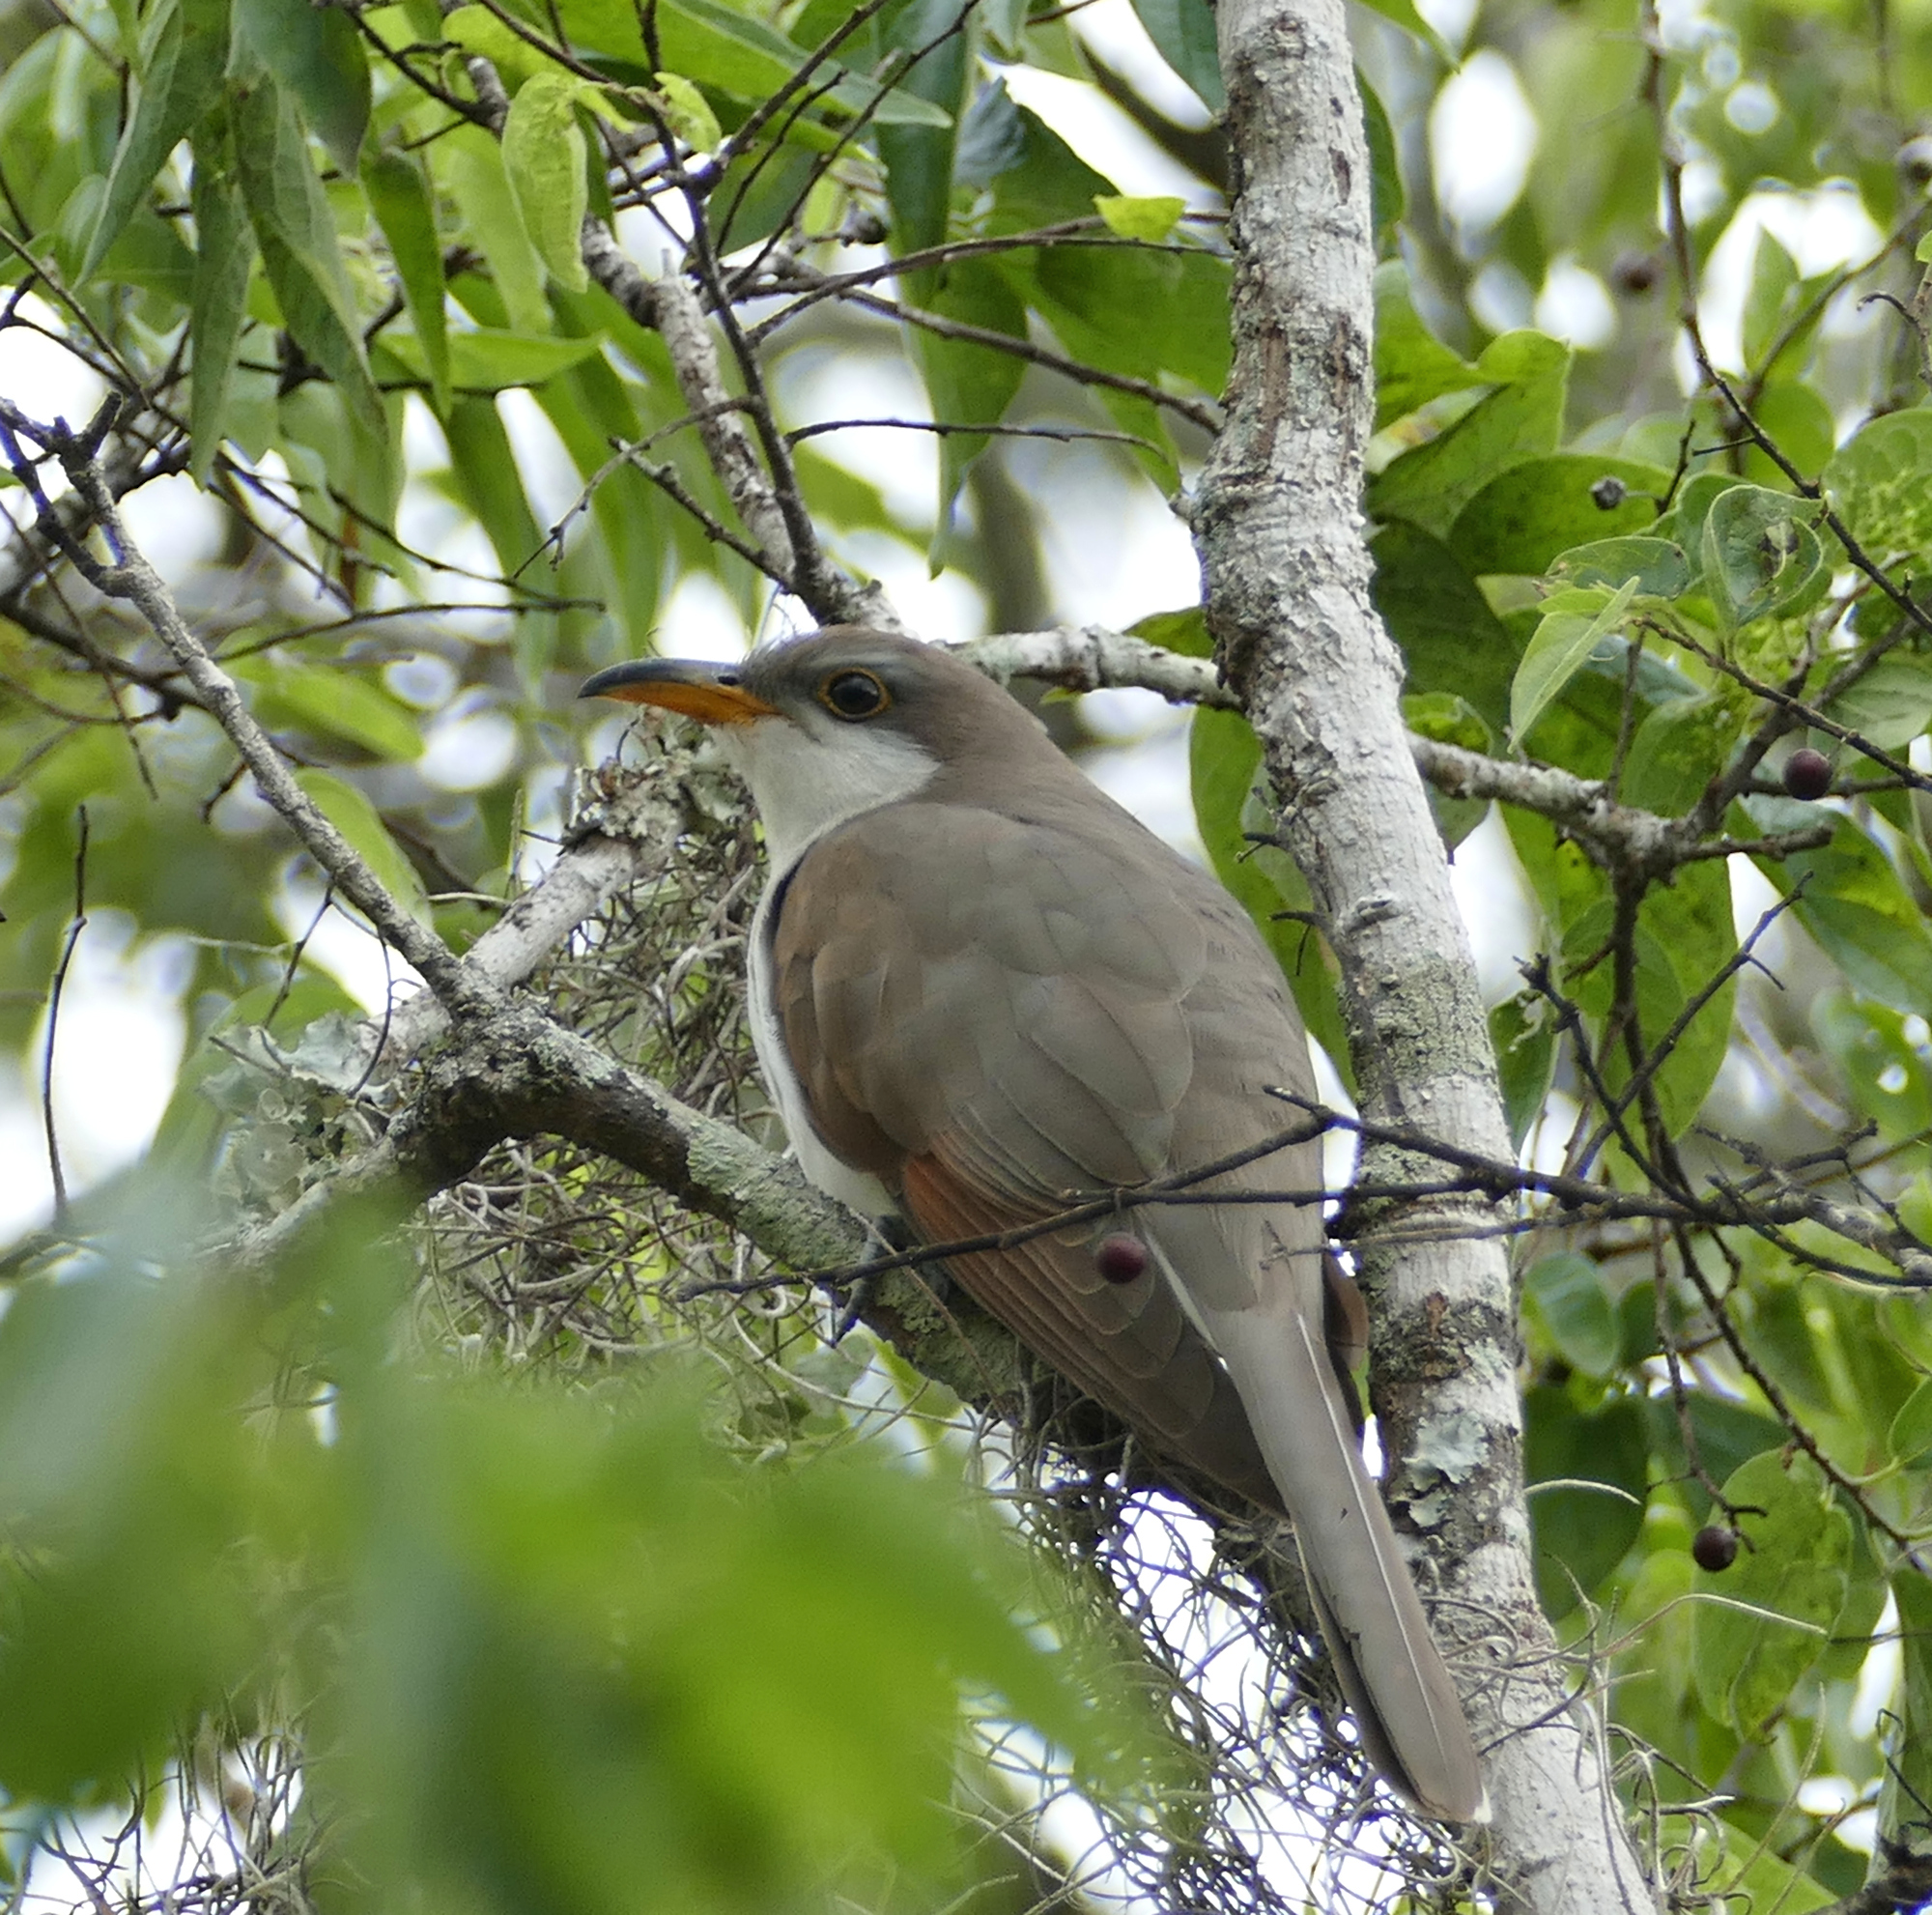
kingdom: Animalia
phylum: Chordata
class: Aves
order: Cuculiformes
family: Cuculidae
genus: Coccyzus
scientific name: Coccyzus americanus
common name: Yellow-billed cuckoo
